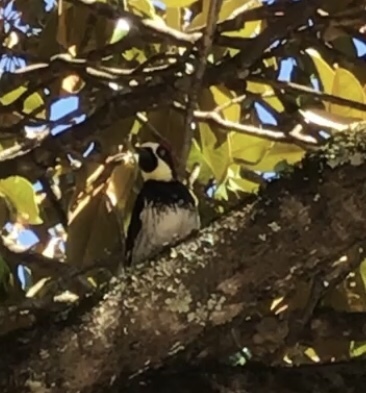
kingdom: Animalia
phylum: Chordata
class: Aves
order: Piciformes
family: Picidae
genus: Melanerpes
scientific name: Melanerpes formicivorus
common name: Acorn woodpecker
